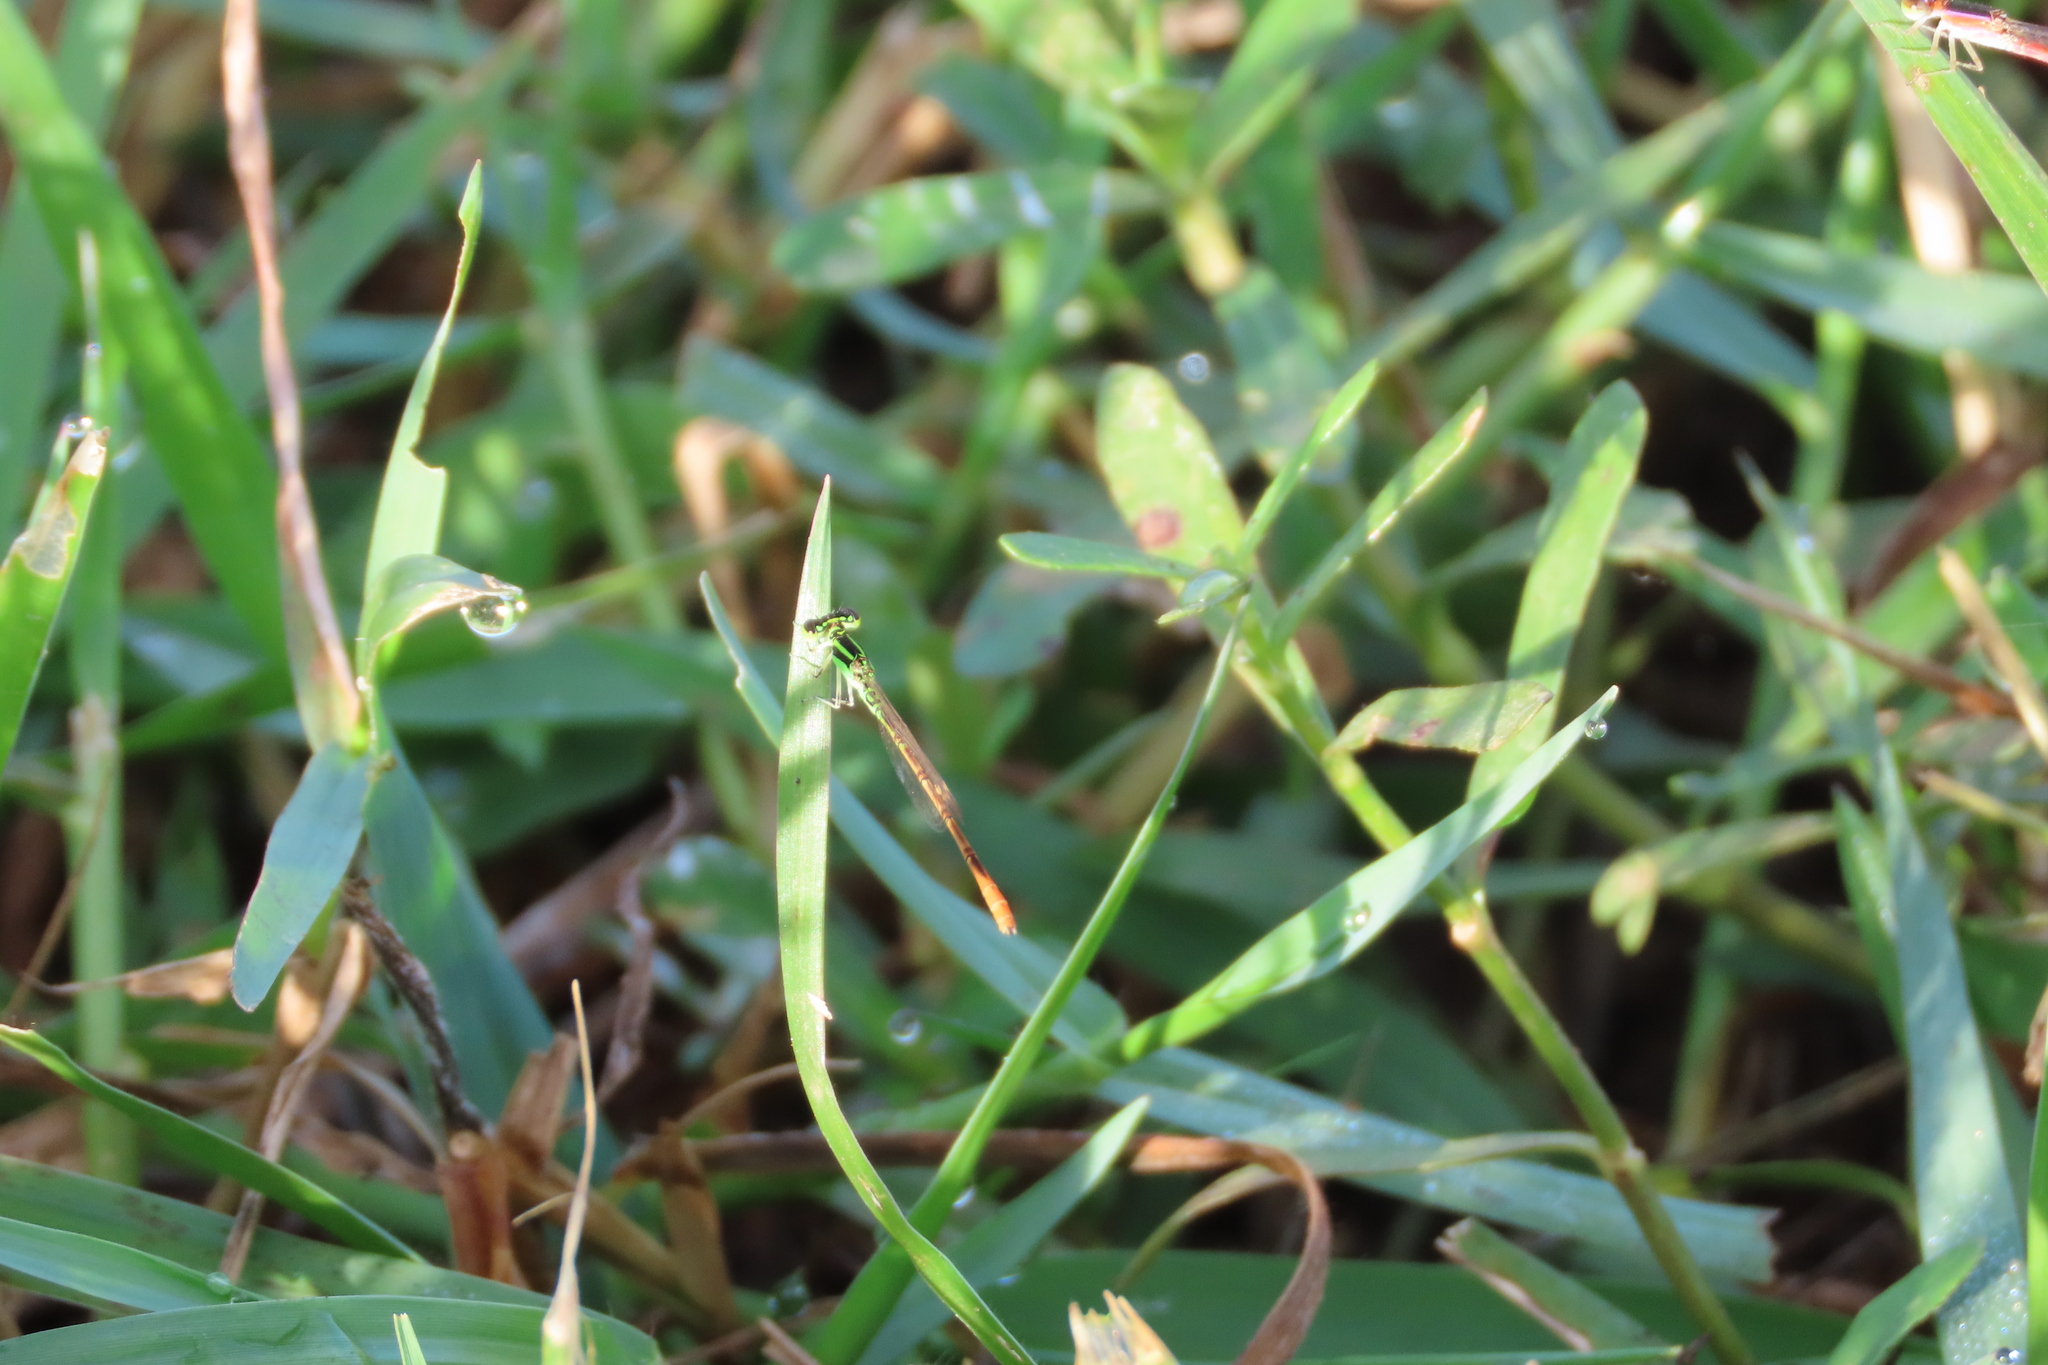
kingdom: Animalia
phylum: Arthropoda
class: Insecta
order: Odonata
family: Coenagrionidae
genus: Agriocnemis
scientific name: Agriocnemis keralensis
